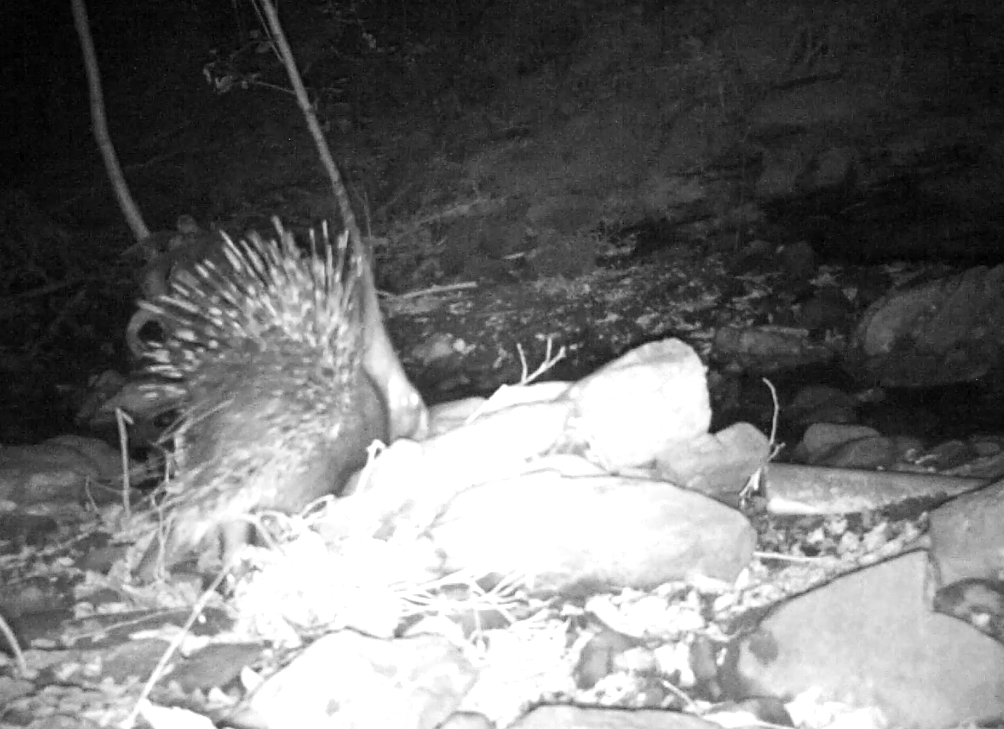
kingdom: Animalia
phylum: Chordata
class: Mammalia
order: Rodentia
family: Hystricidae
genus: Hystrix
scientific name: Hystrix cristata
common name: Crested porcupine
